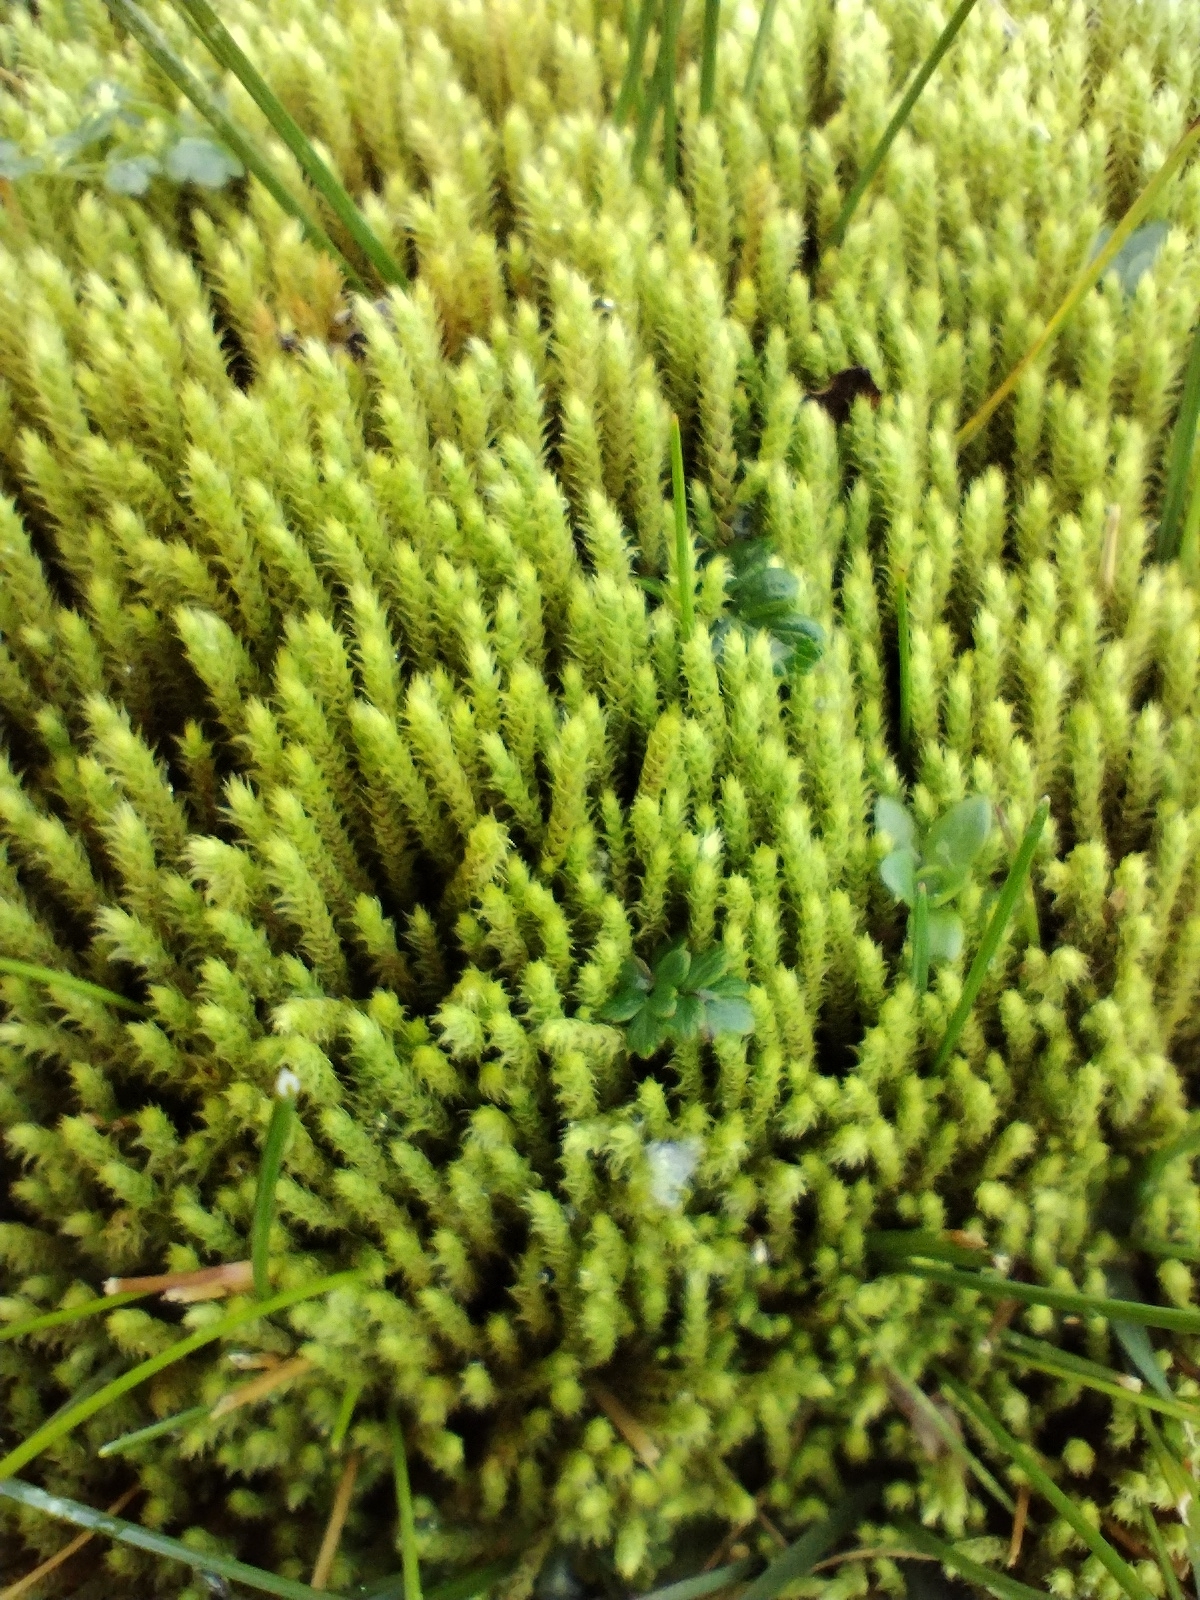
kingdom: Plantae
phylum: Bryophyta
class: Bryopsida
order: Bartramiales
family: Bartramiaceae
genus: Philonotis
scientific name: Philonotis fontana
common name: Fountain apple-moss
